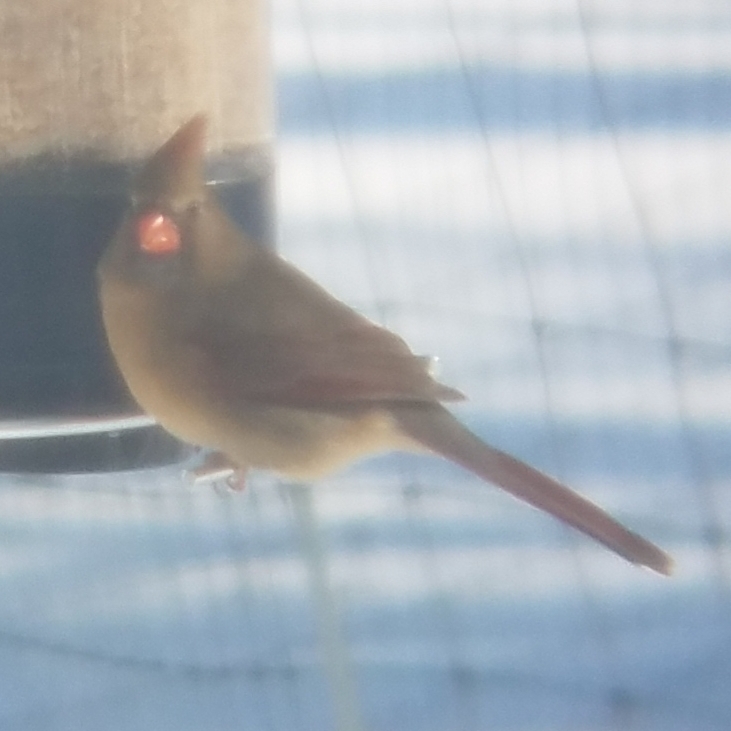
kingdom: Animalia
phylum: Chordata
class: Aves
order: Passeriformes
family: Cardinalidae
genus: Cardinalis
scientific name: Cardinalis cardinalis
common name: Northern cardinal
